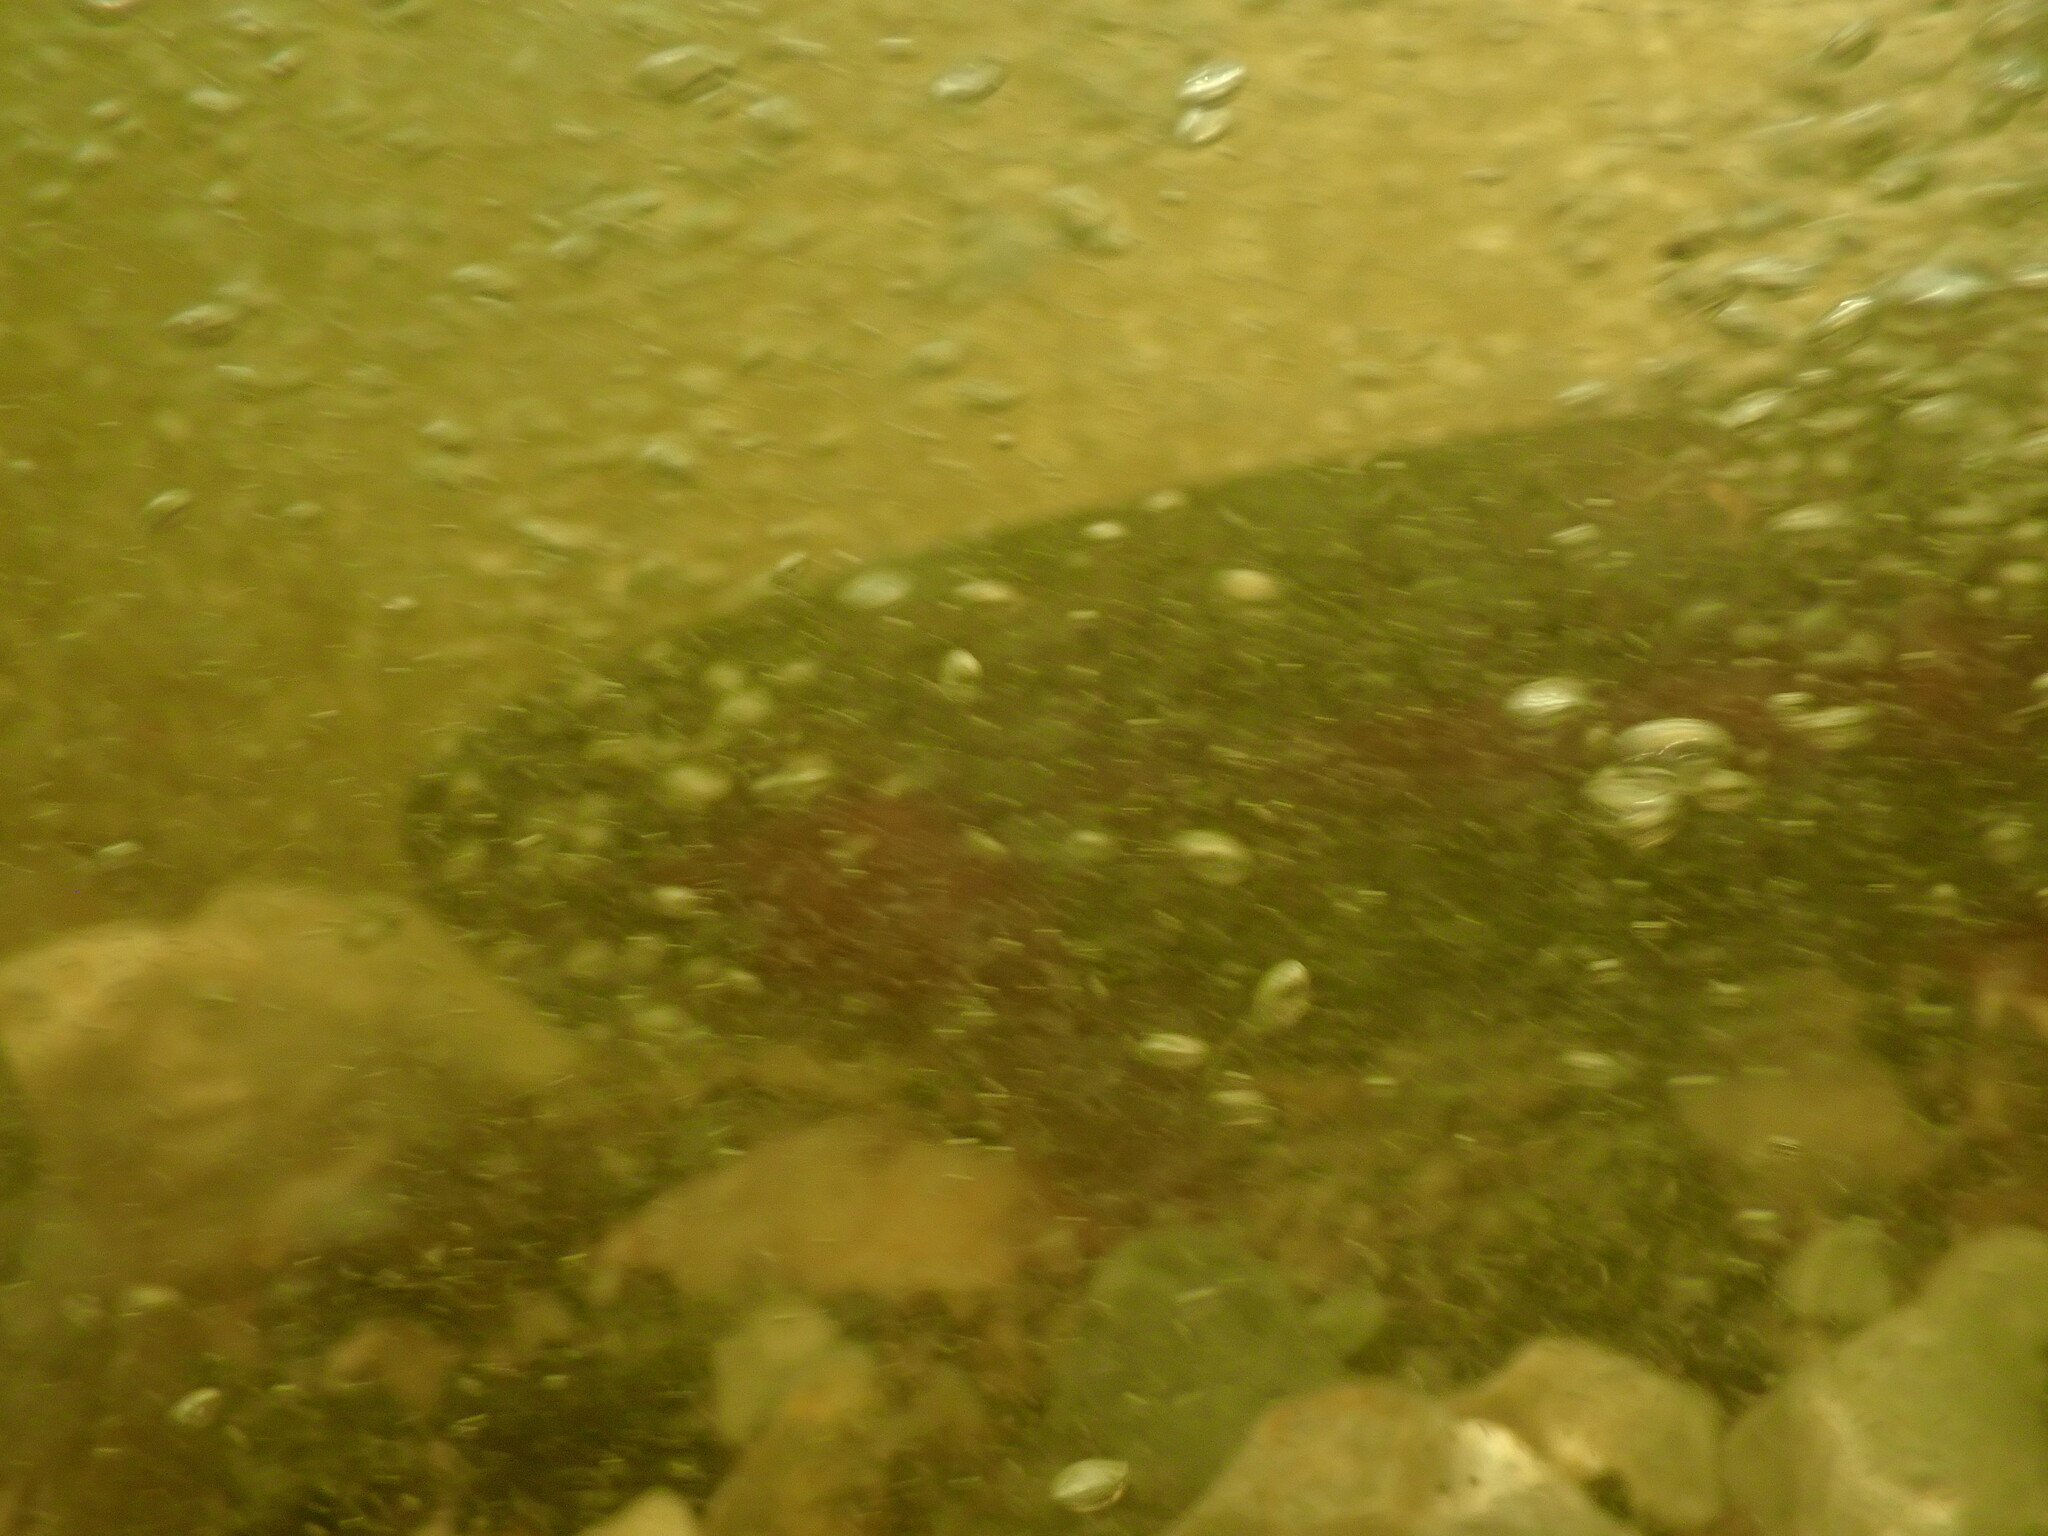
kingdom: Animalia
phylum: Chordata
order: Salmoniformes
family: Salmonidae
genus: Oncorhynchus
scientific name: Oncorhynchus mykiss
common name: Rainbow trout
